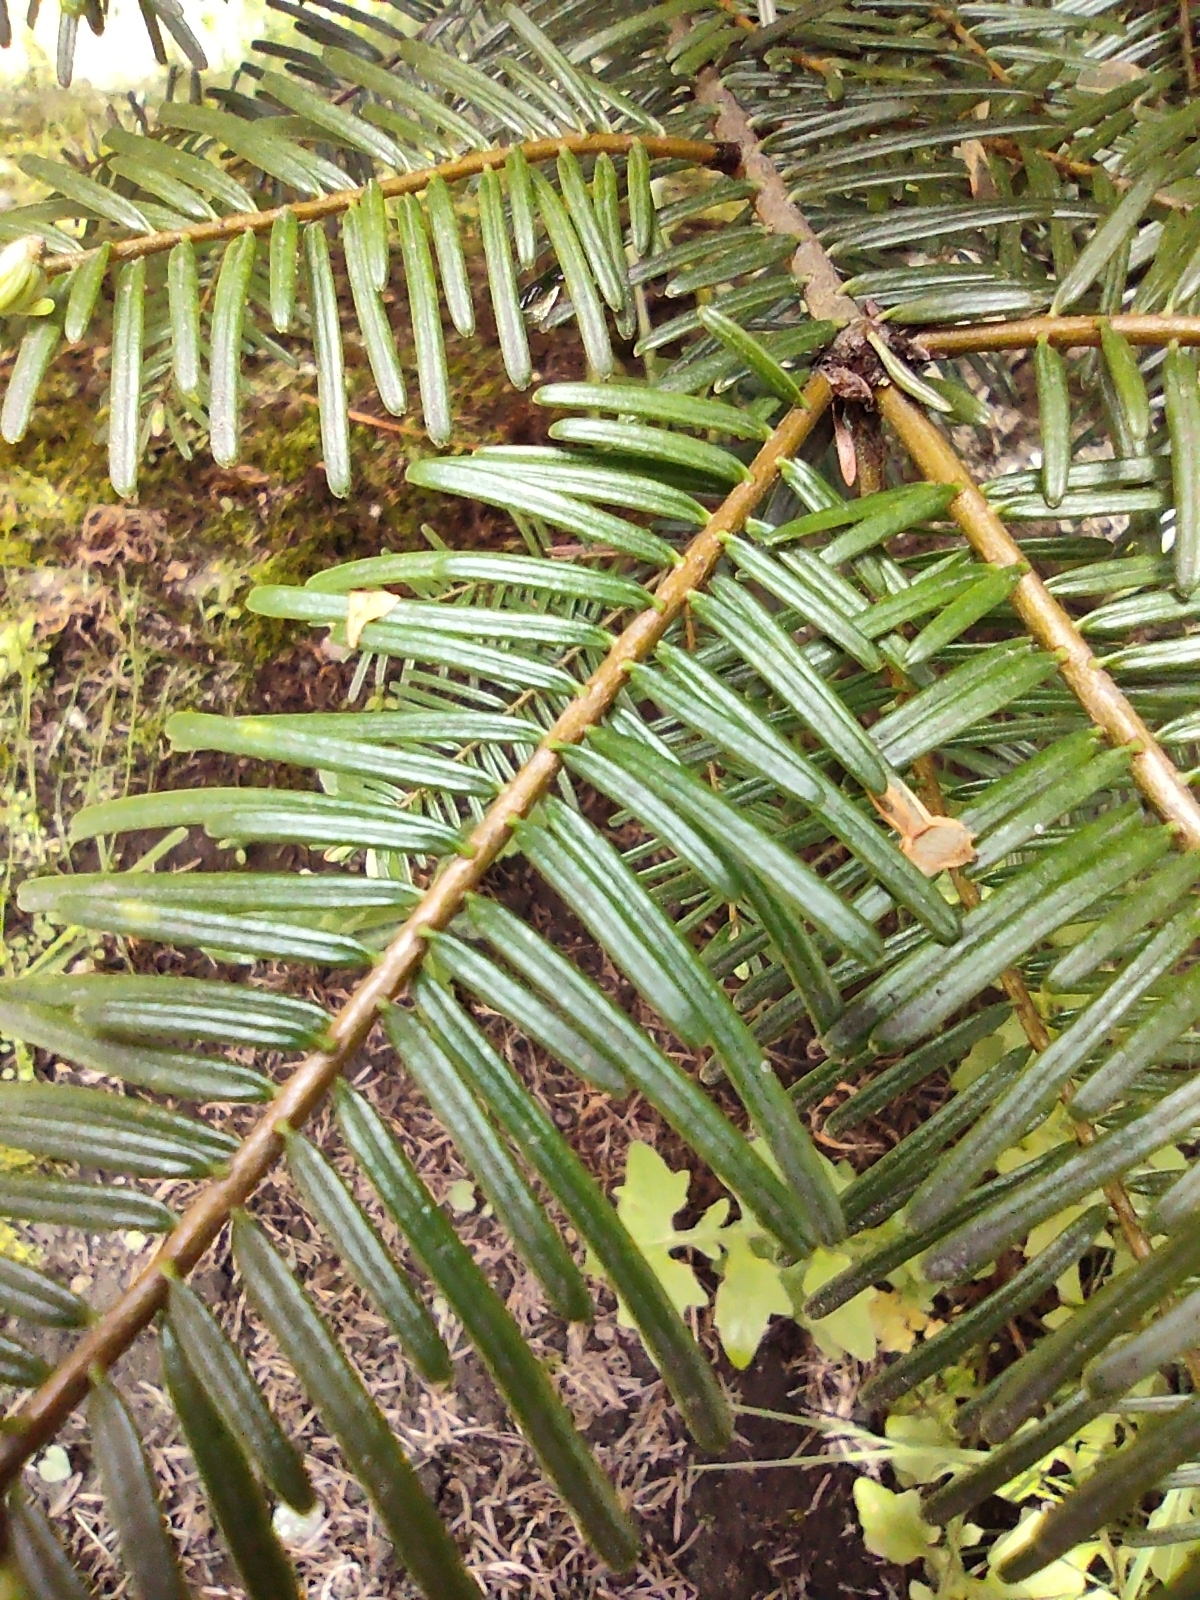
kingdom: Plantae
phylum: Tracheophyta
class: Pinopsida
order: Pinales
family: Pinaceae
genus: Abies
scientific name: Abies grandis
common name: Giant fir
